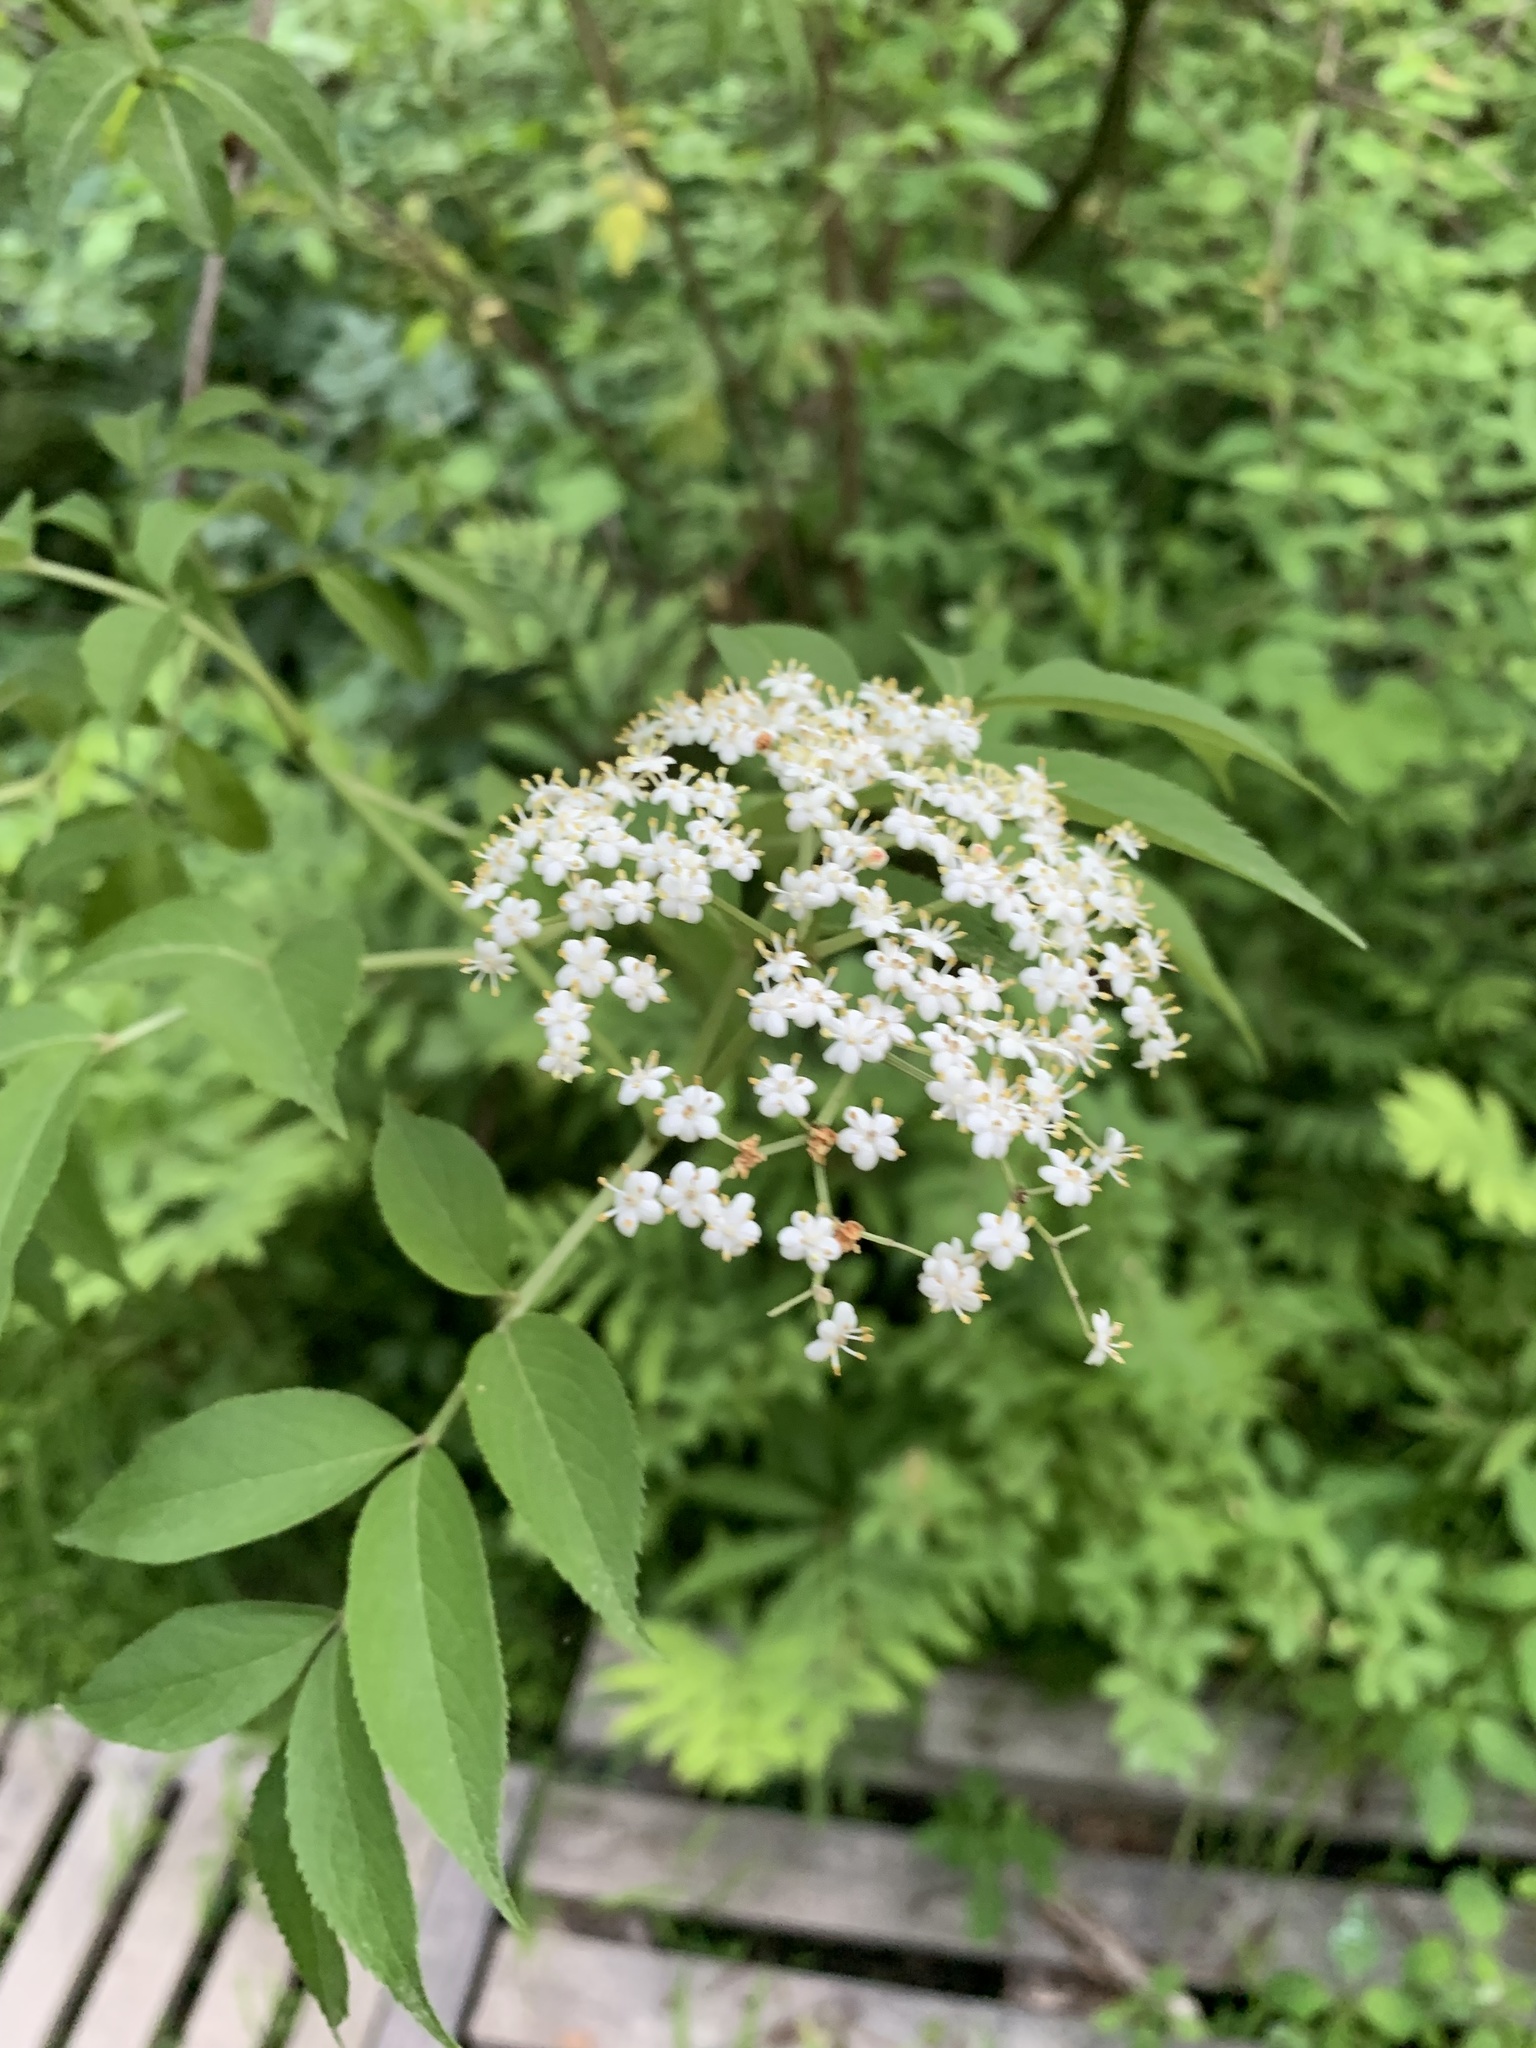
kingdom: Plantae
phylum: Tracheophyta
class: Magnoliopsida
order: Dipsacales
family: Viburnaceae
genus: Sambucus
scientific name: Sambucus canadensis
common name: American elder
